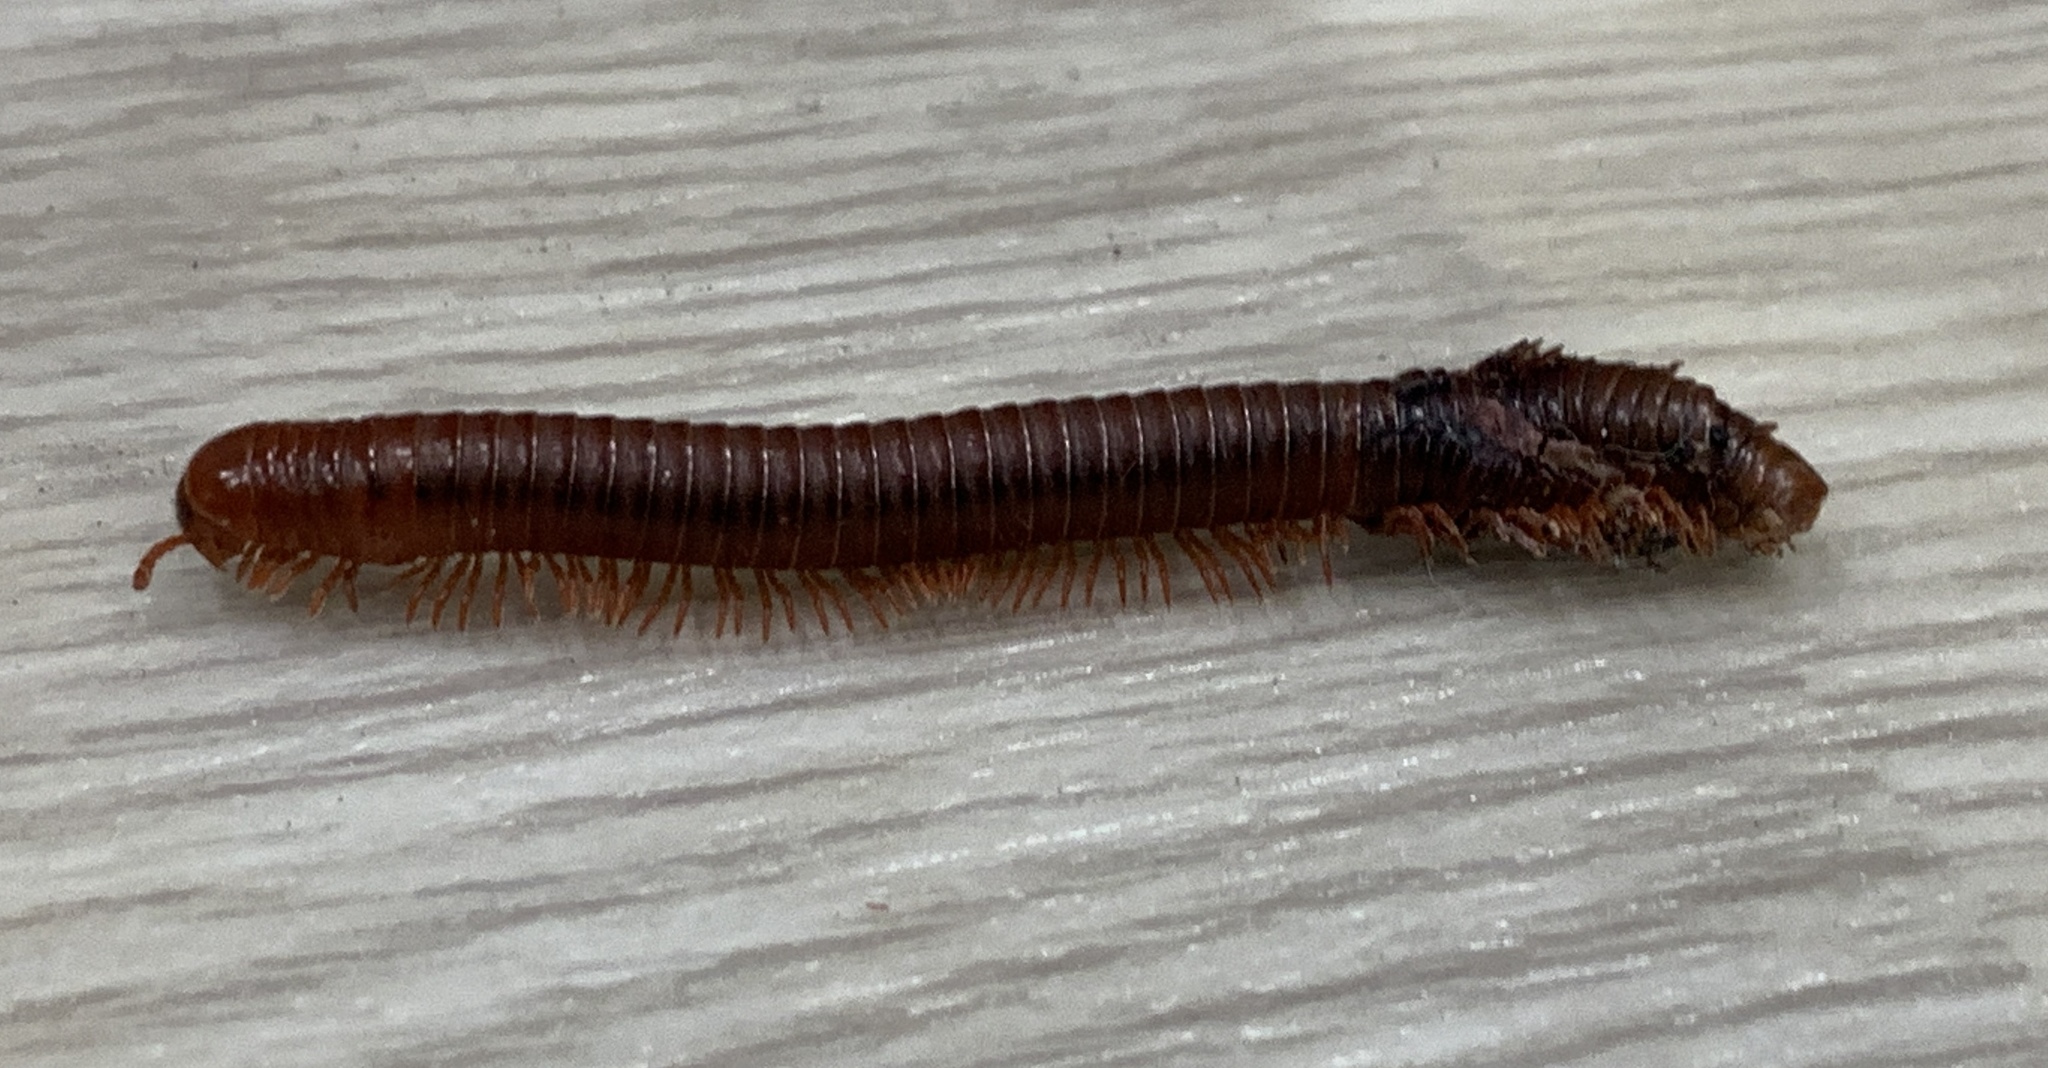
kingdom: Animalia
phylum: Arthropoda
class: Diplopoda
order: Spirobolida
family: Pachybolidae
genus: Trigoniulus
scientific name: Trigoniulus corallinus
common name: Millipede
